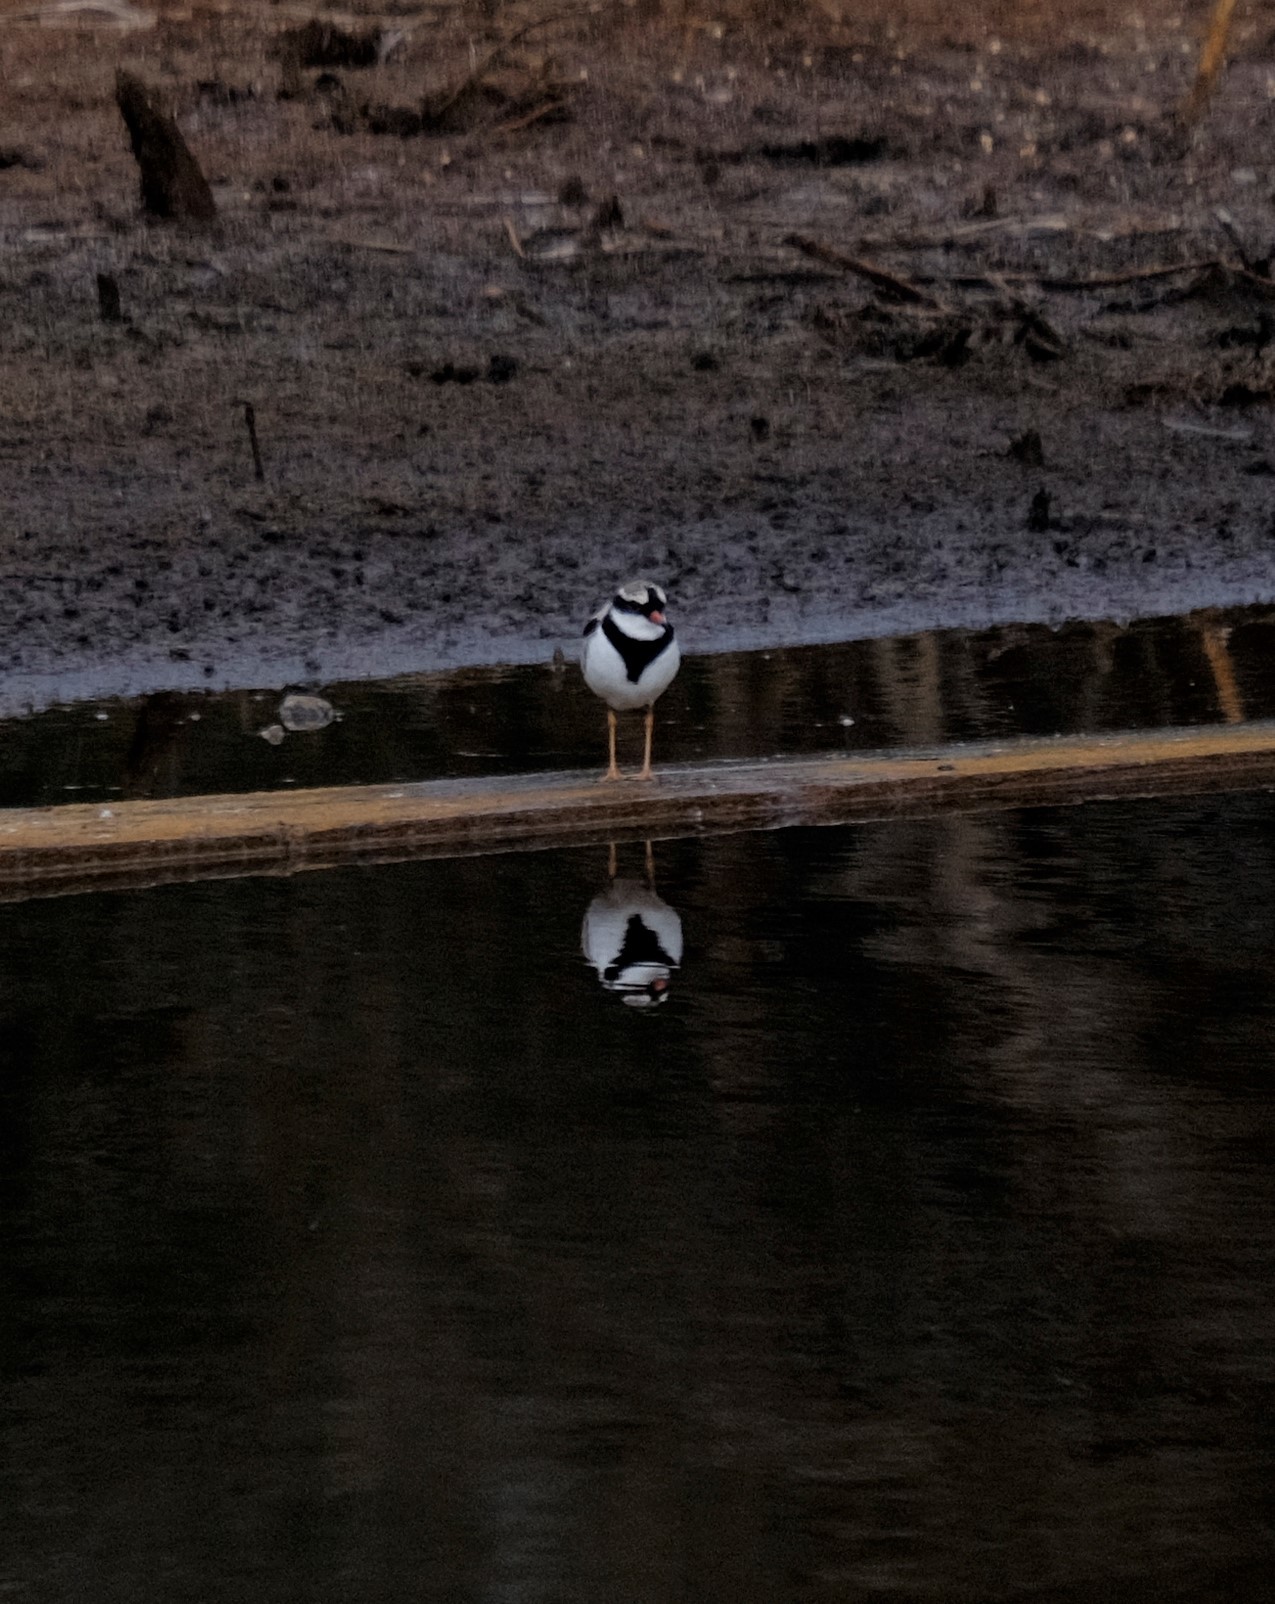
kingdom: Animalia
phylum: Chordata
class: Aves
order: Charadriiformes
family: Charadriidae
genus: Elseyornis
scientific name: Elseyornis melanops
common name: Black-fronted dotterel
